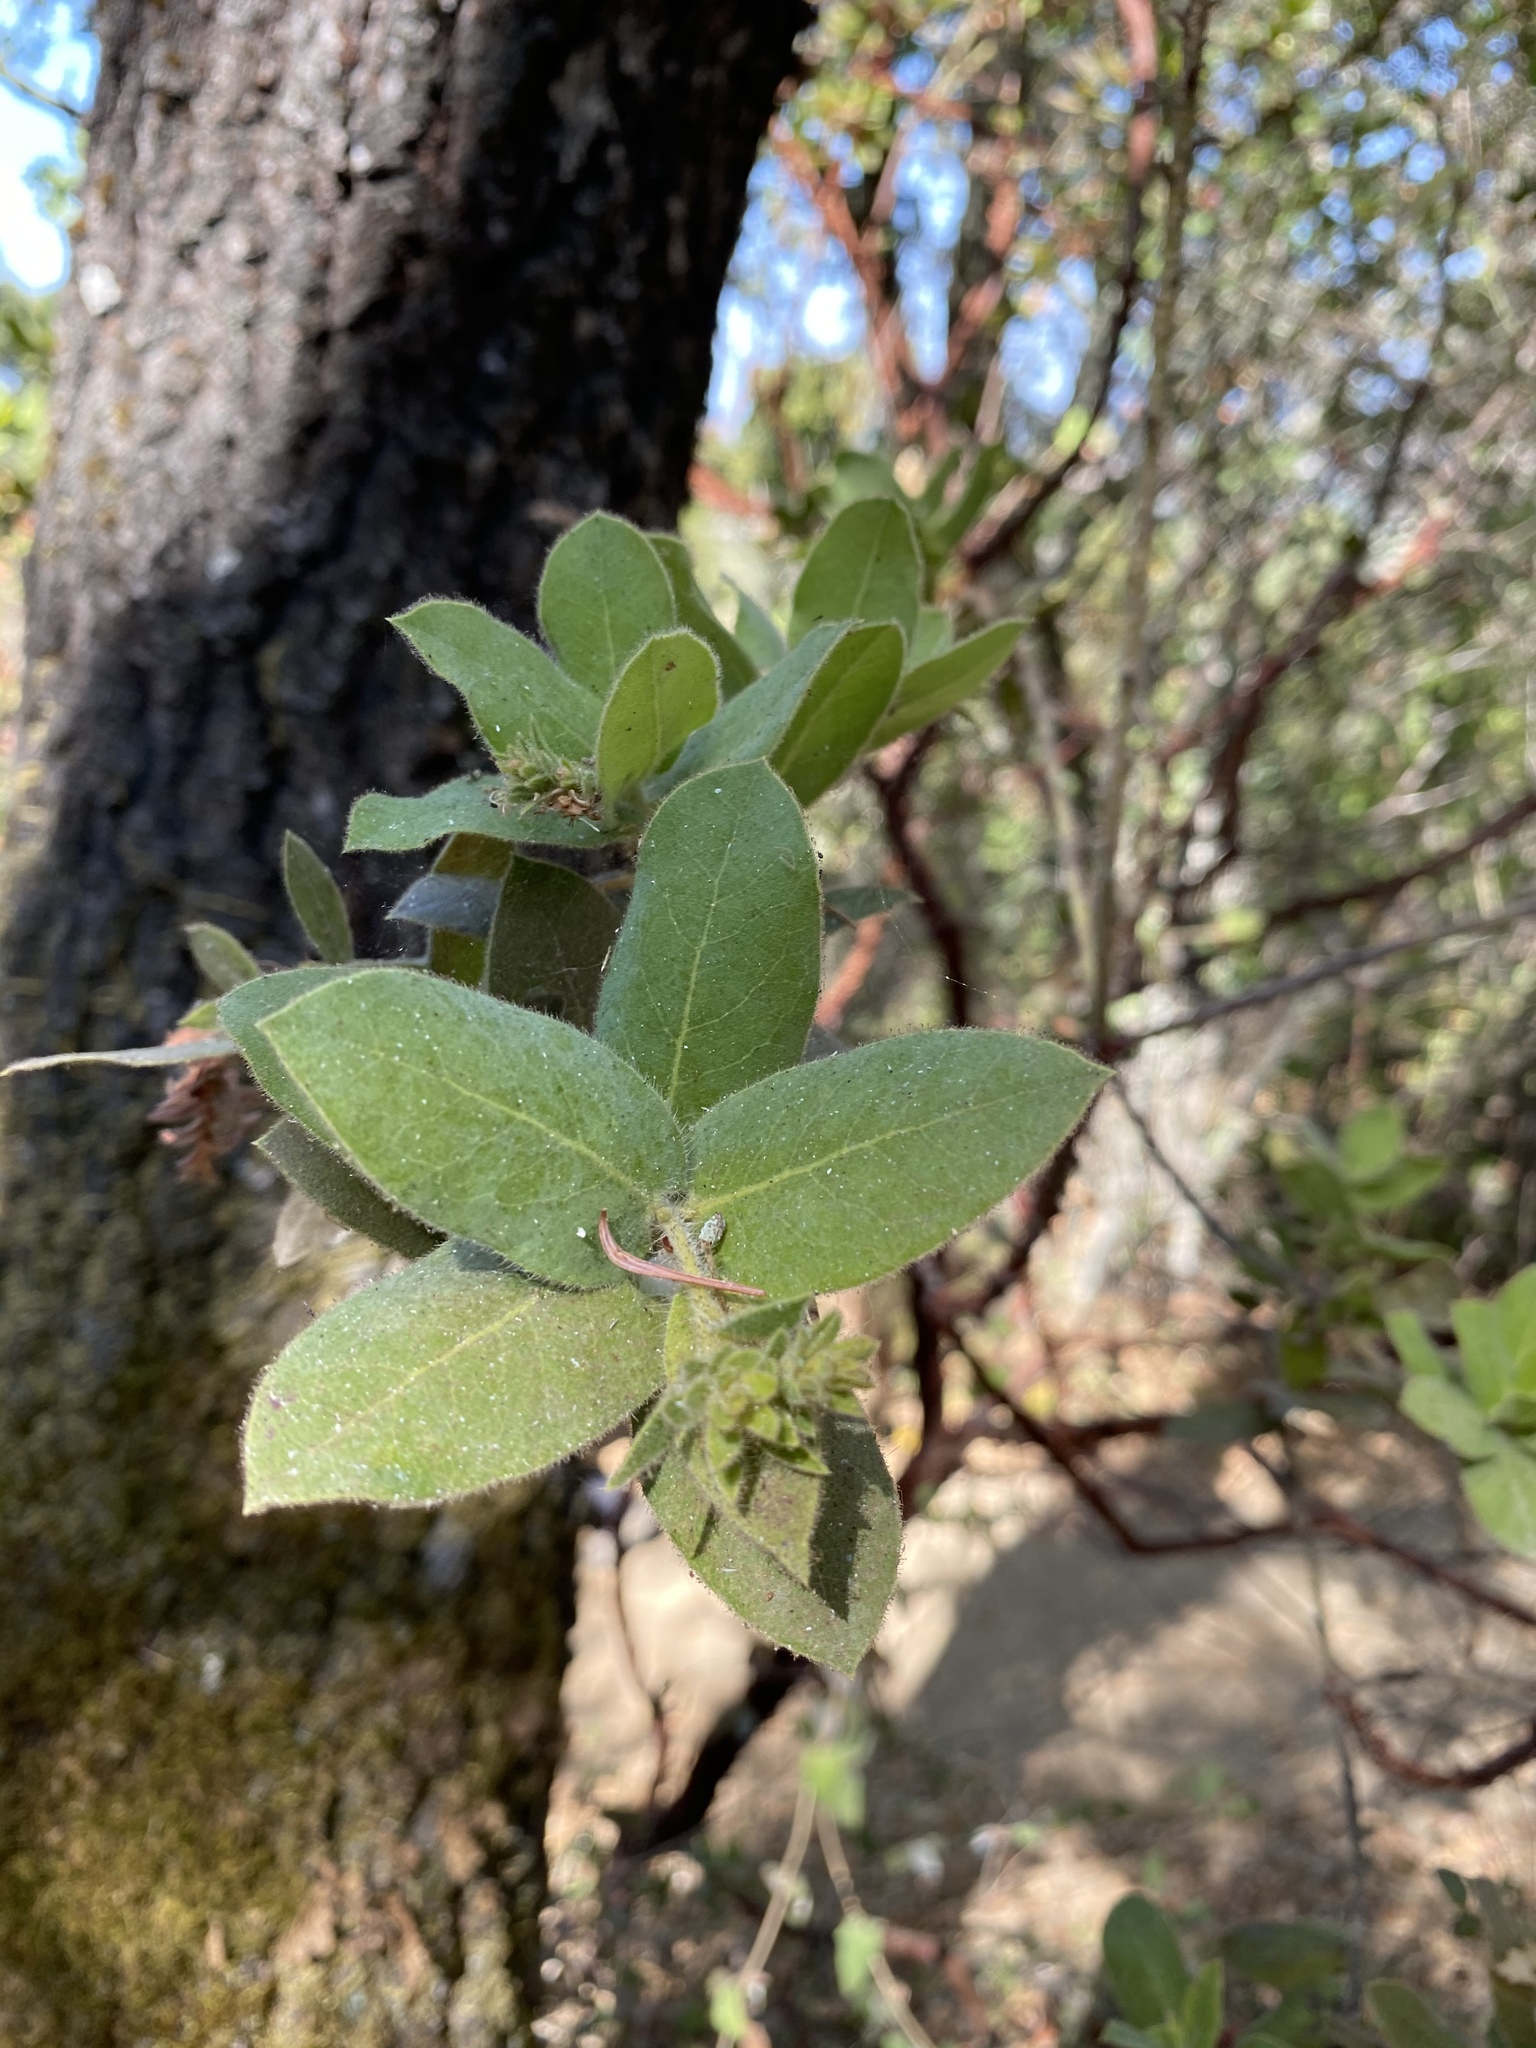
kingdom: Plantae
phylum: Tracheophyta
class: Magnoliopsida
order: Ericales
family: Ericaceae
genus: Arctostaphylos
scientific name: Arctostaphylos regismontana
